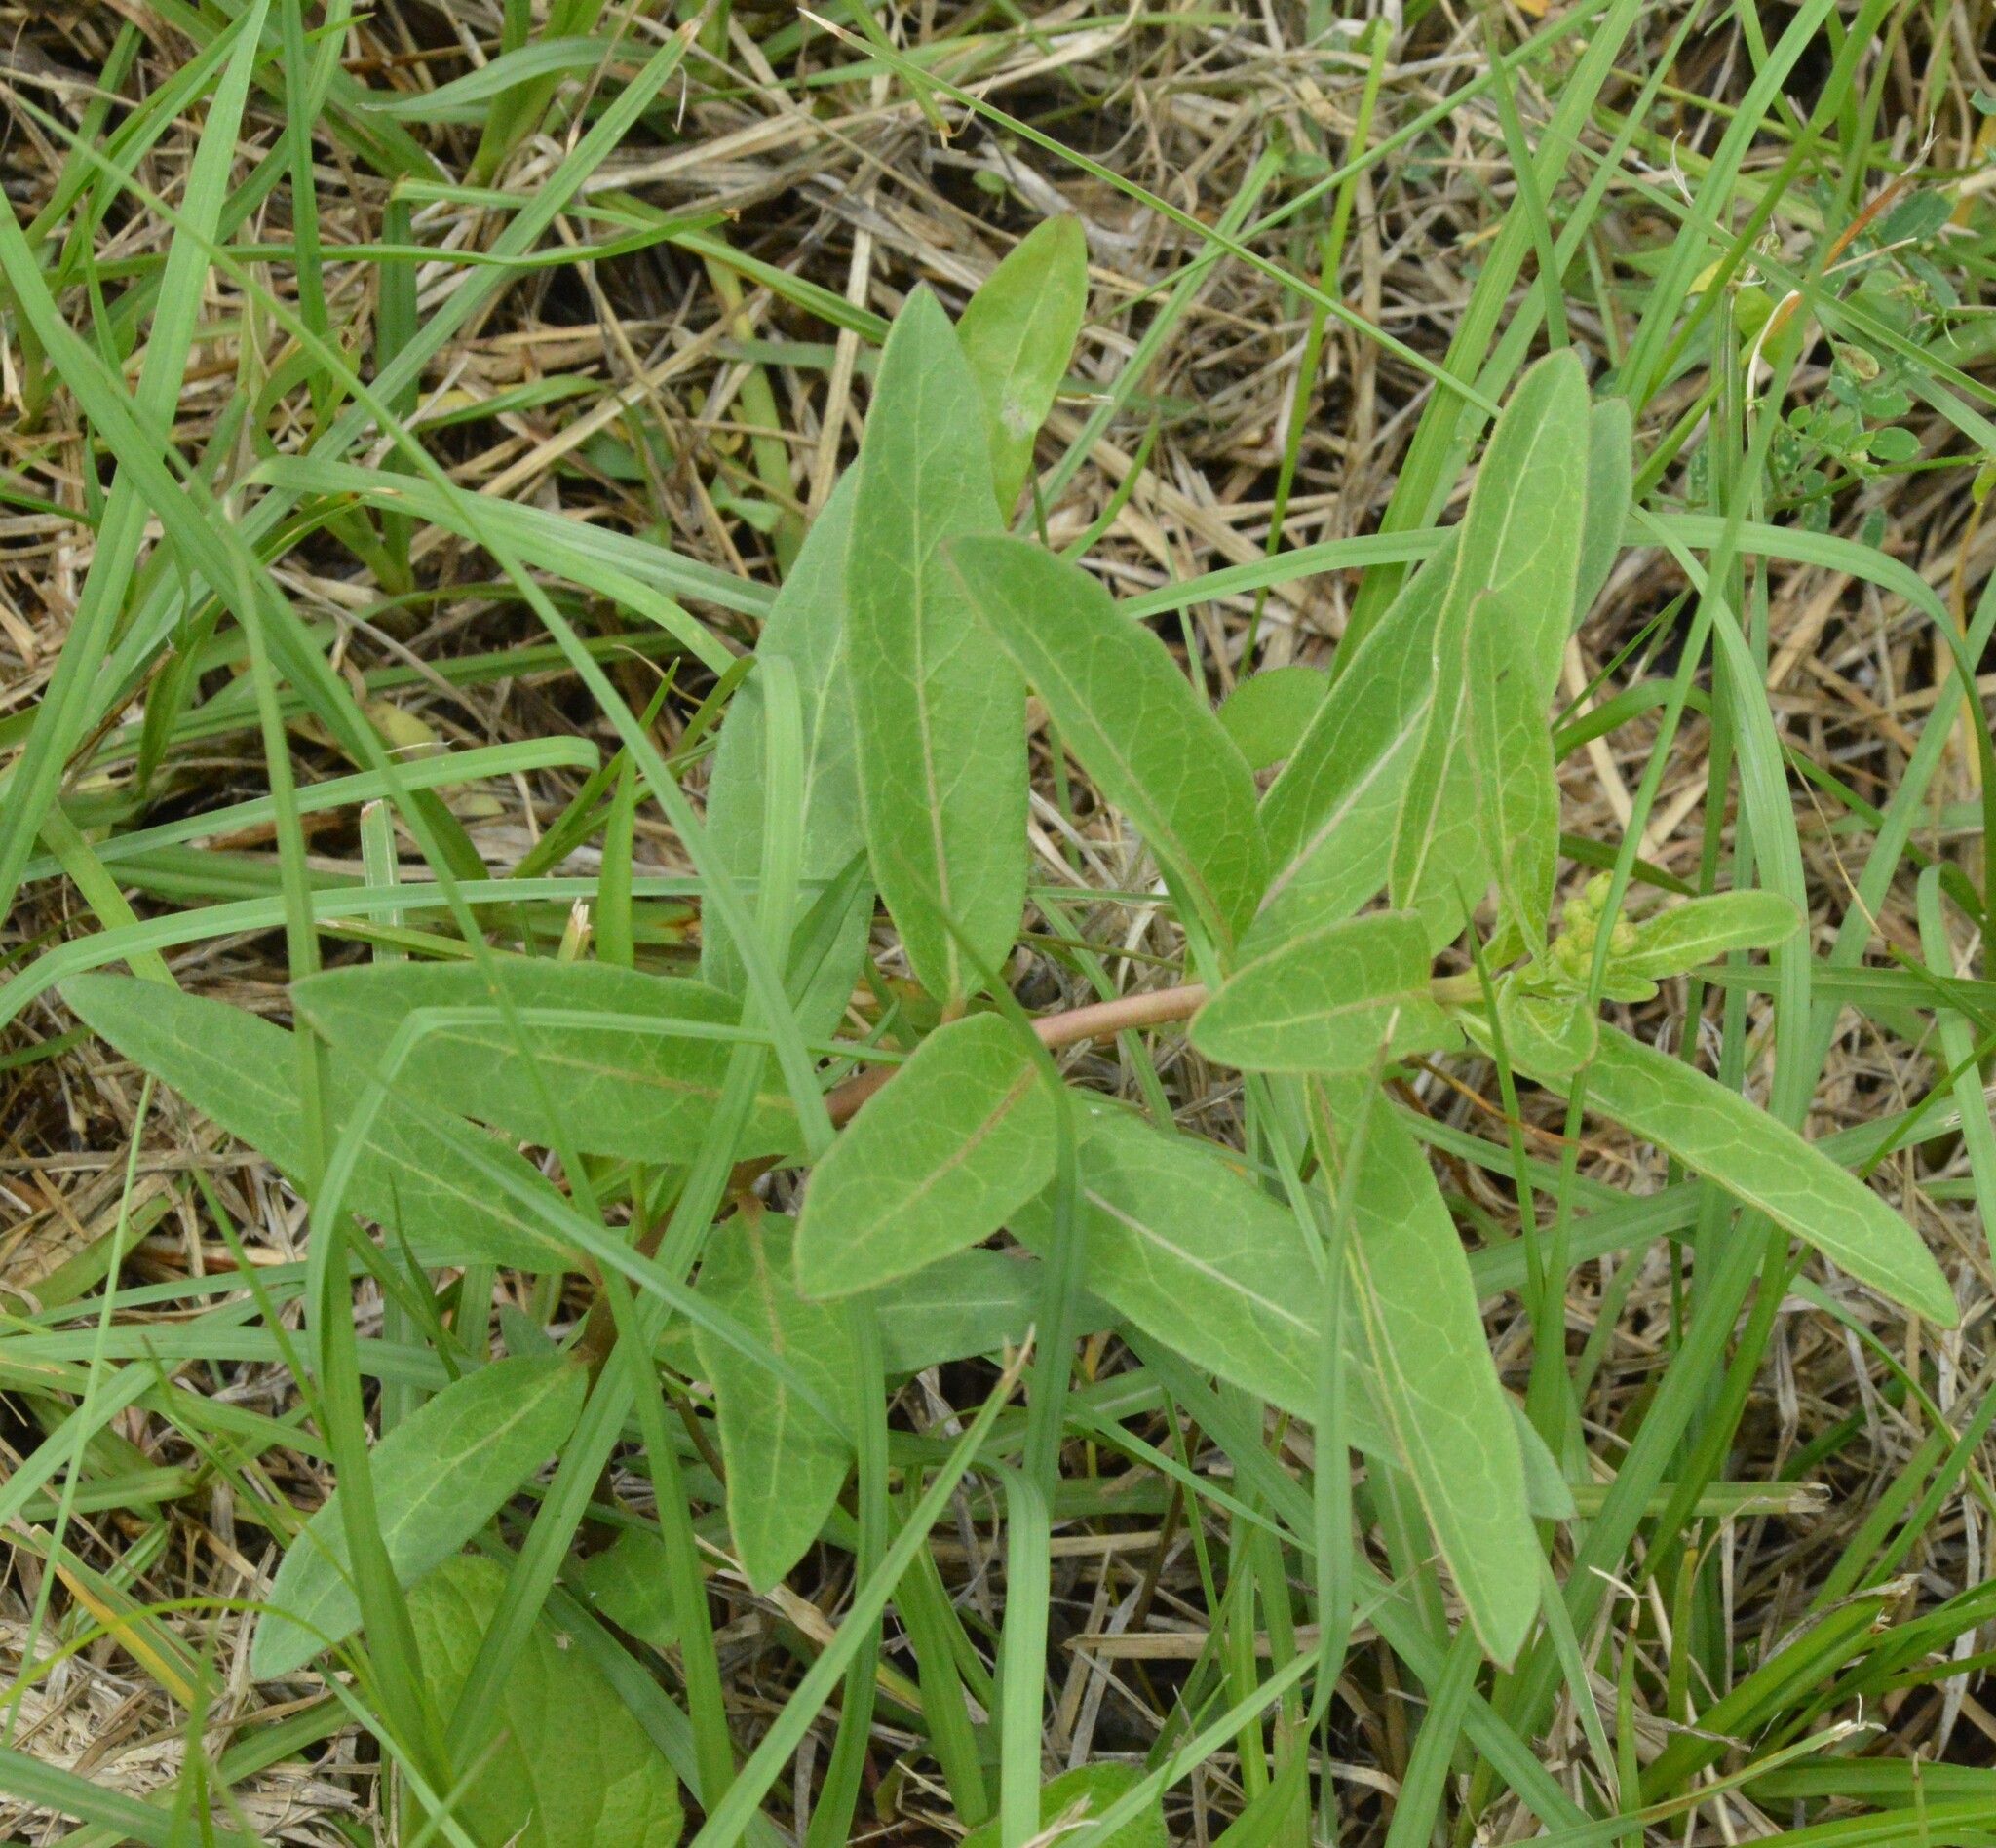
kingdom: Plantae
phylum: Tracheophyta
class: Magnoliopsida
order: Gentianales
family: Apocynaceae
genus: Asclepias
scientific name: Asclepias viridis
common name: Antelope-horns
